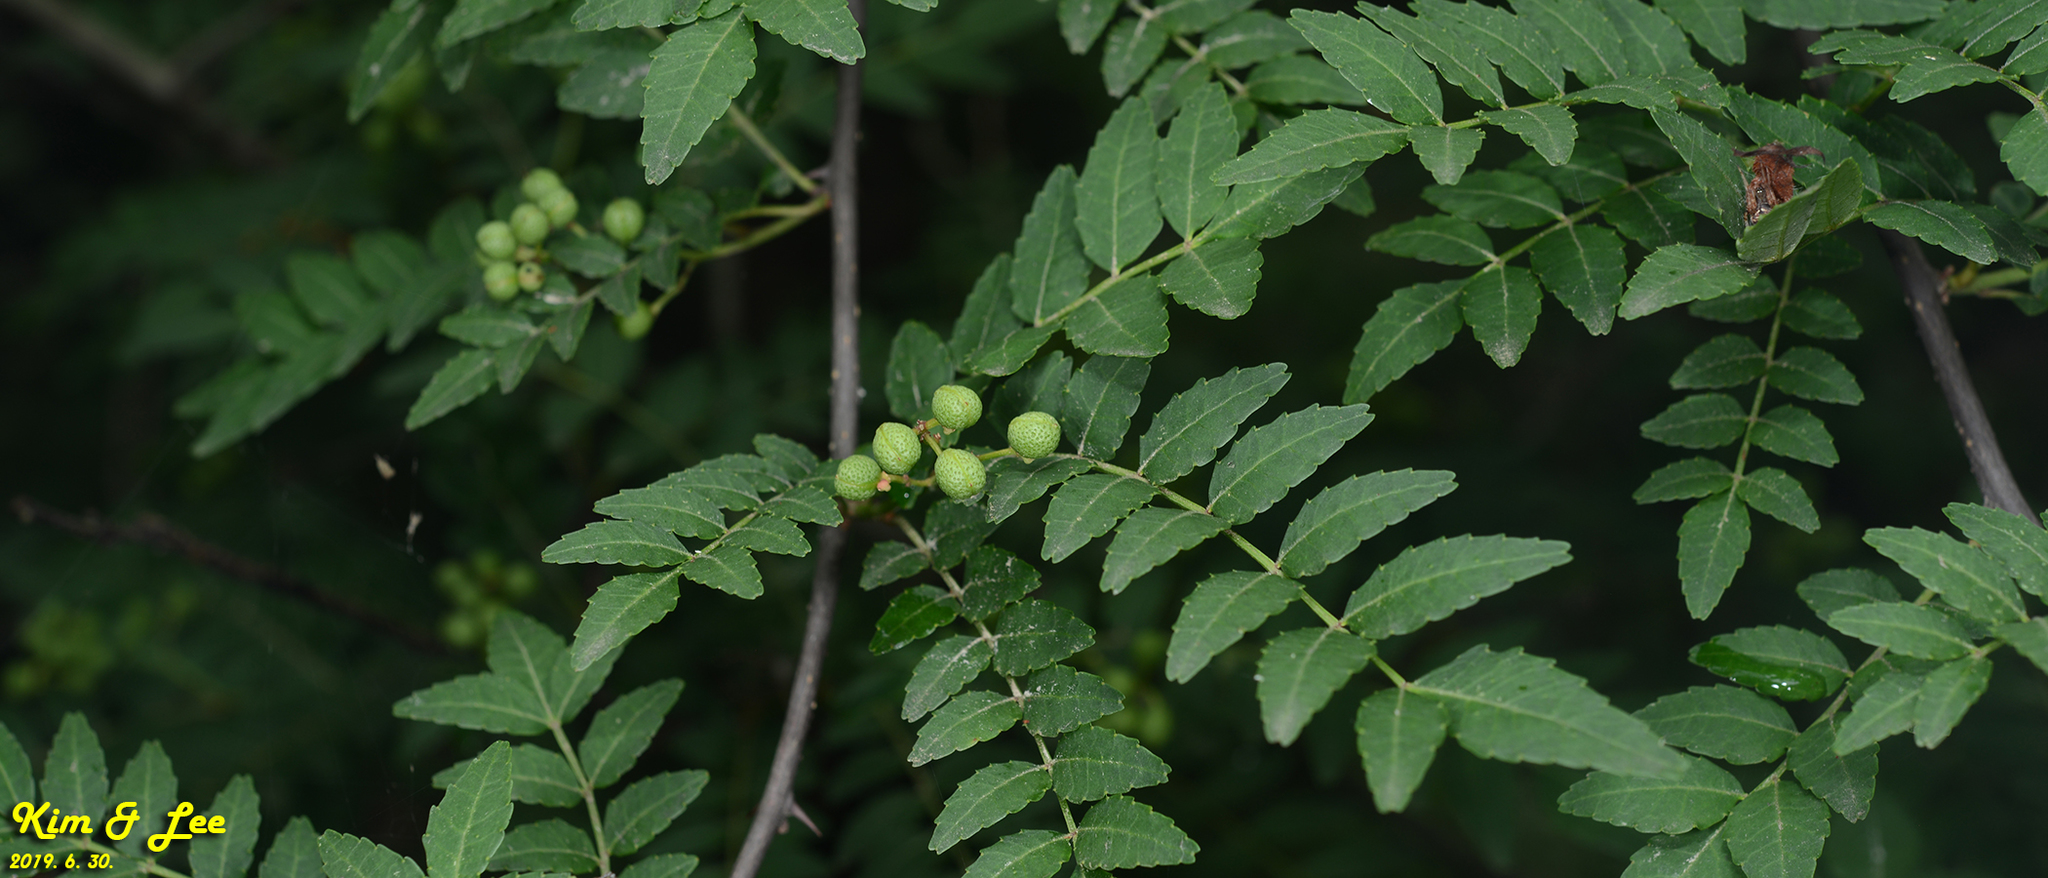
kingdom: Plantae
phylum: Tracheophyta
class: Magnoliopsida
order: Sapindales
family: Rutaceae
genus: Zanthoxylum
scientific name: Zanthoxylum schinifolium
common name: Sichuan-pepper
